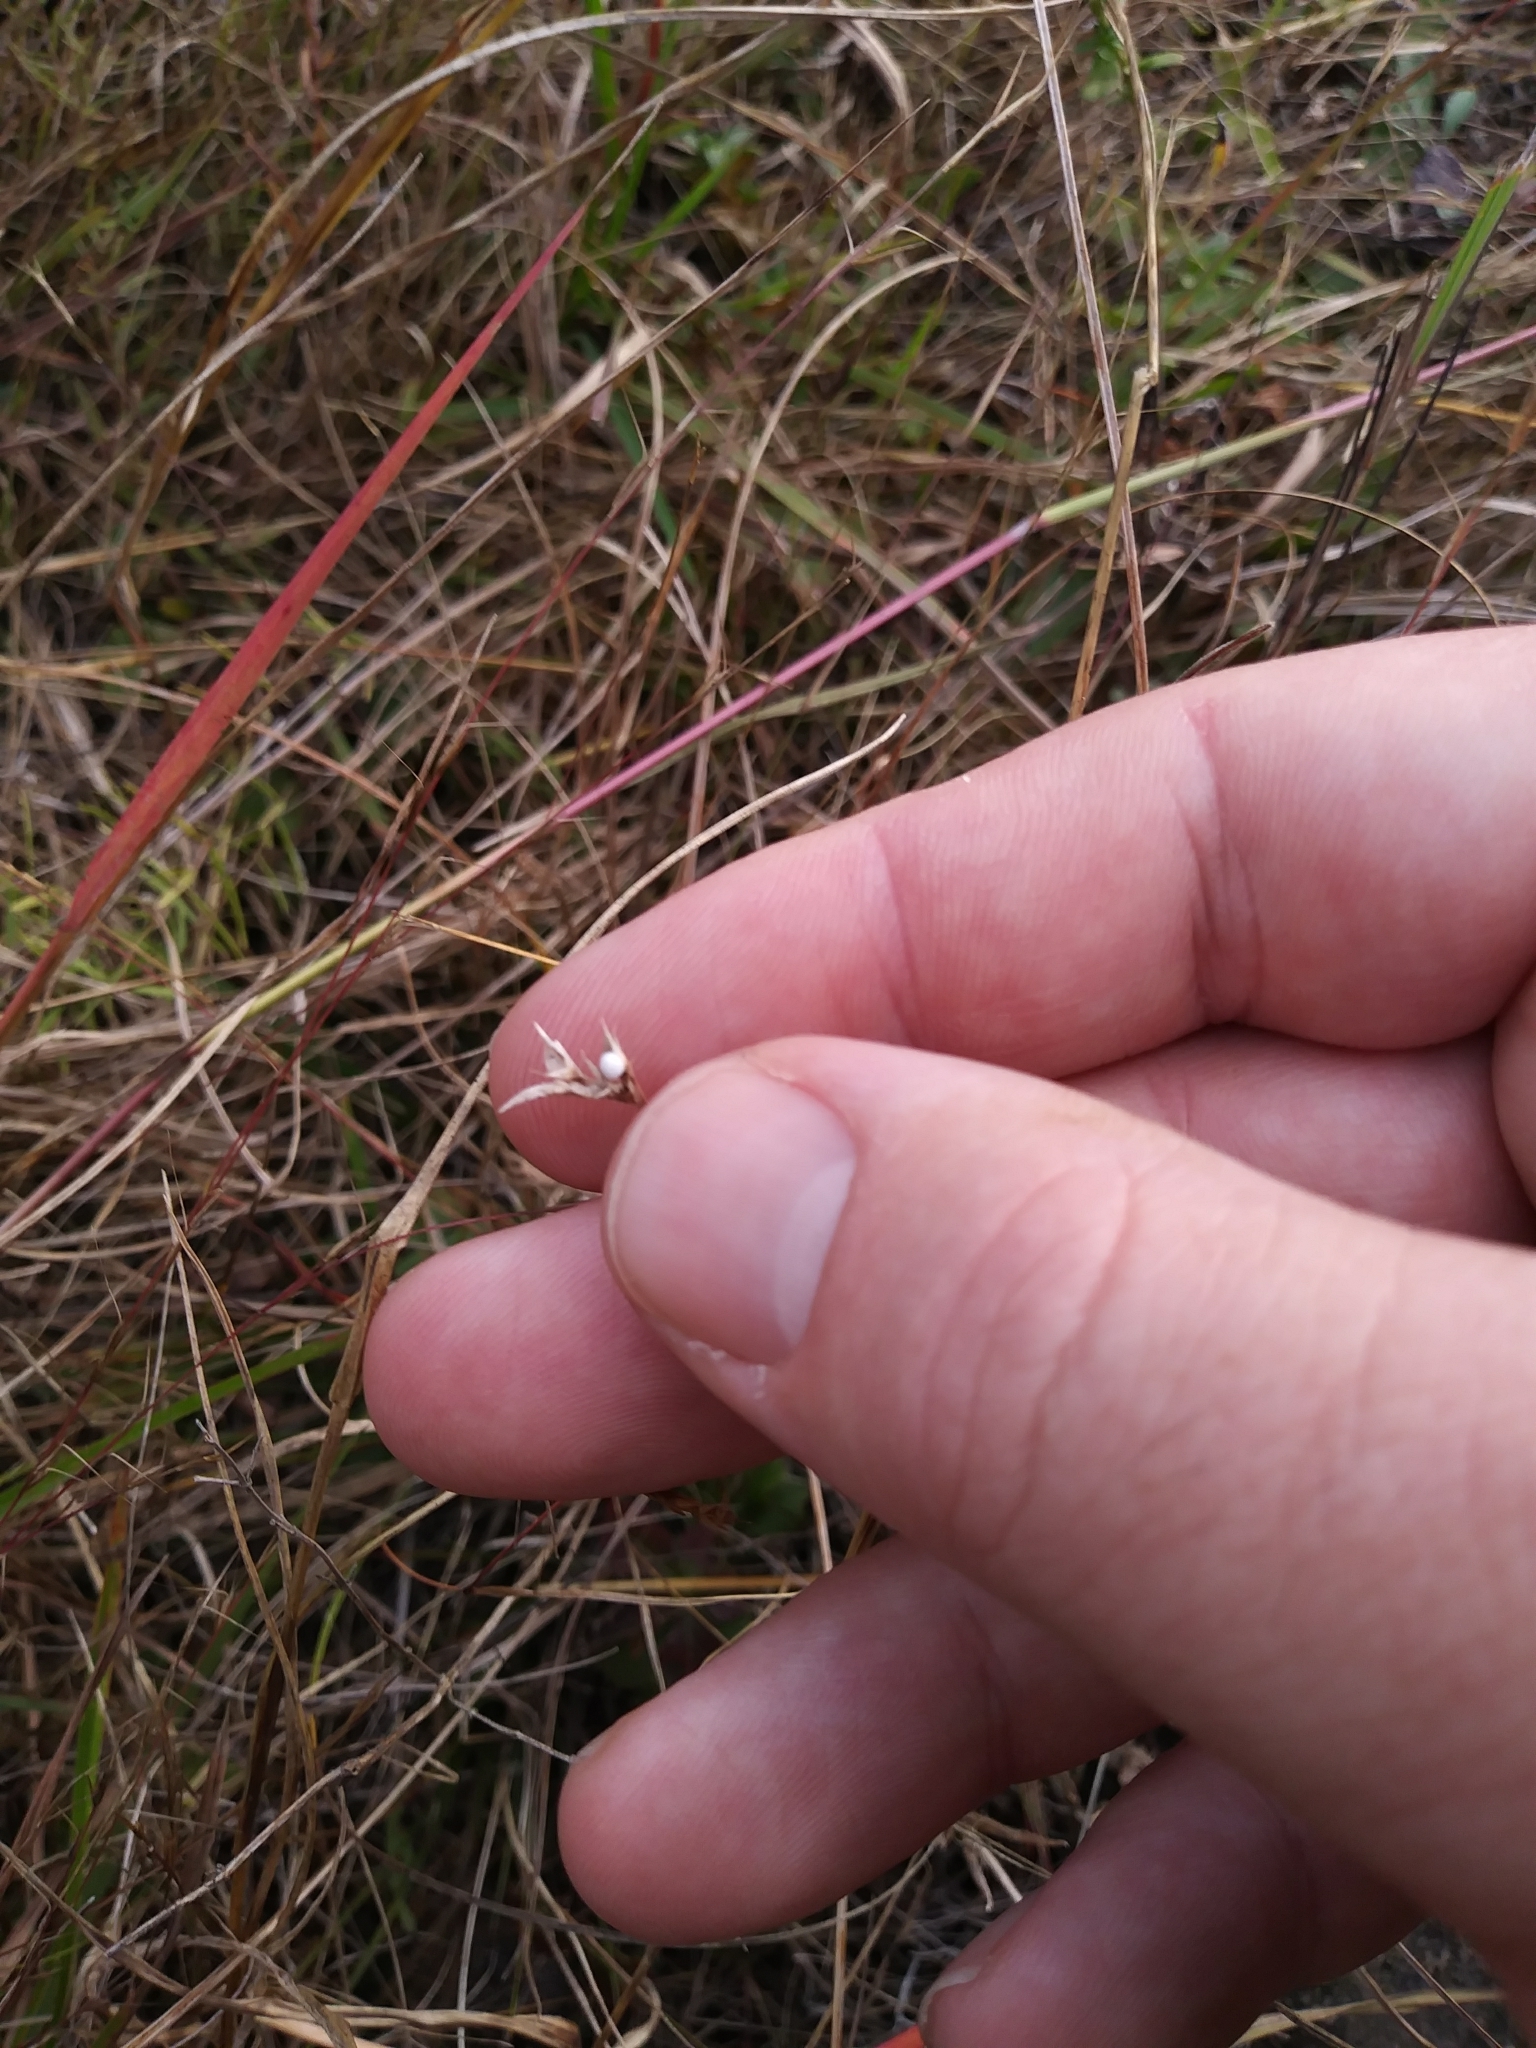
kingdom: Plantae
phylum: Tracheophyta
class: Liliopsida
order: Poales
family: Cyperaceae
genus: Scleria
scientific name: Scleria pauciflora
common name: Few-flowered nutrush
